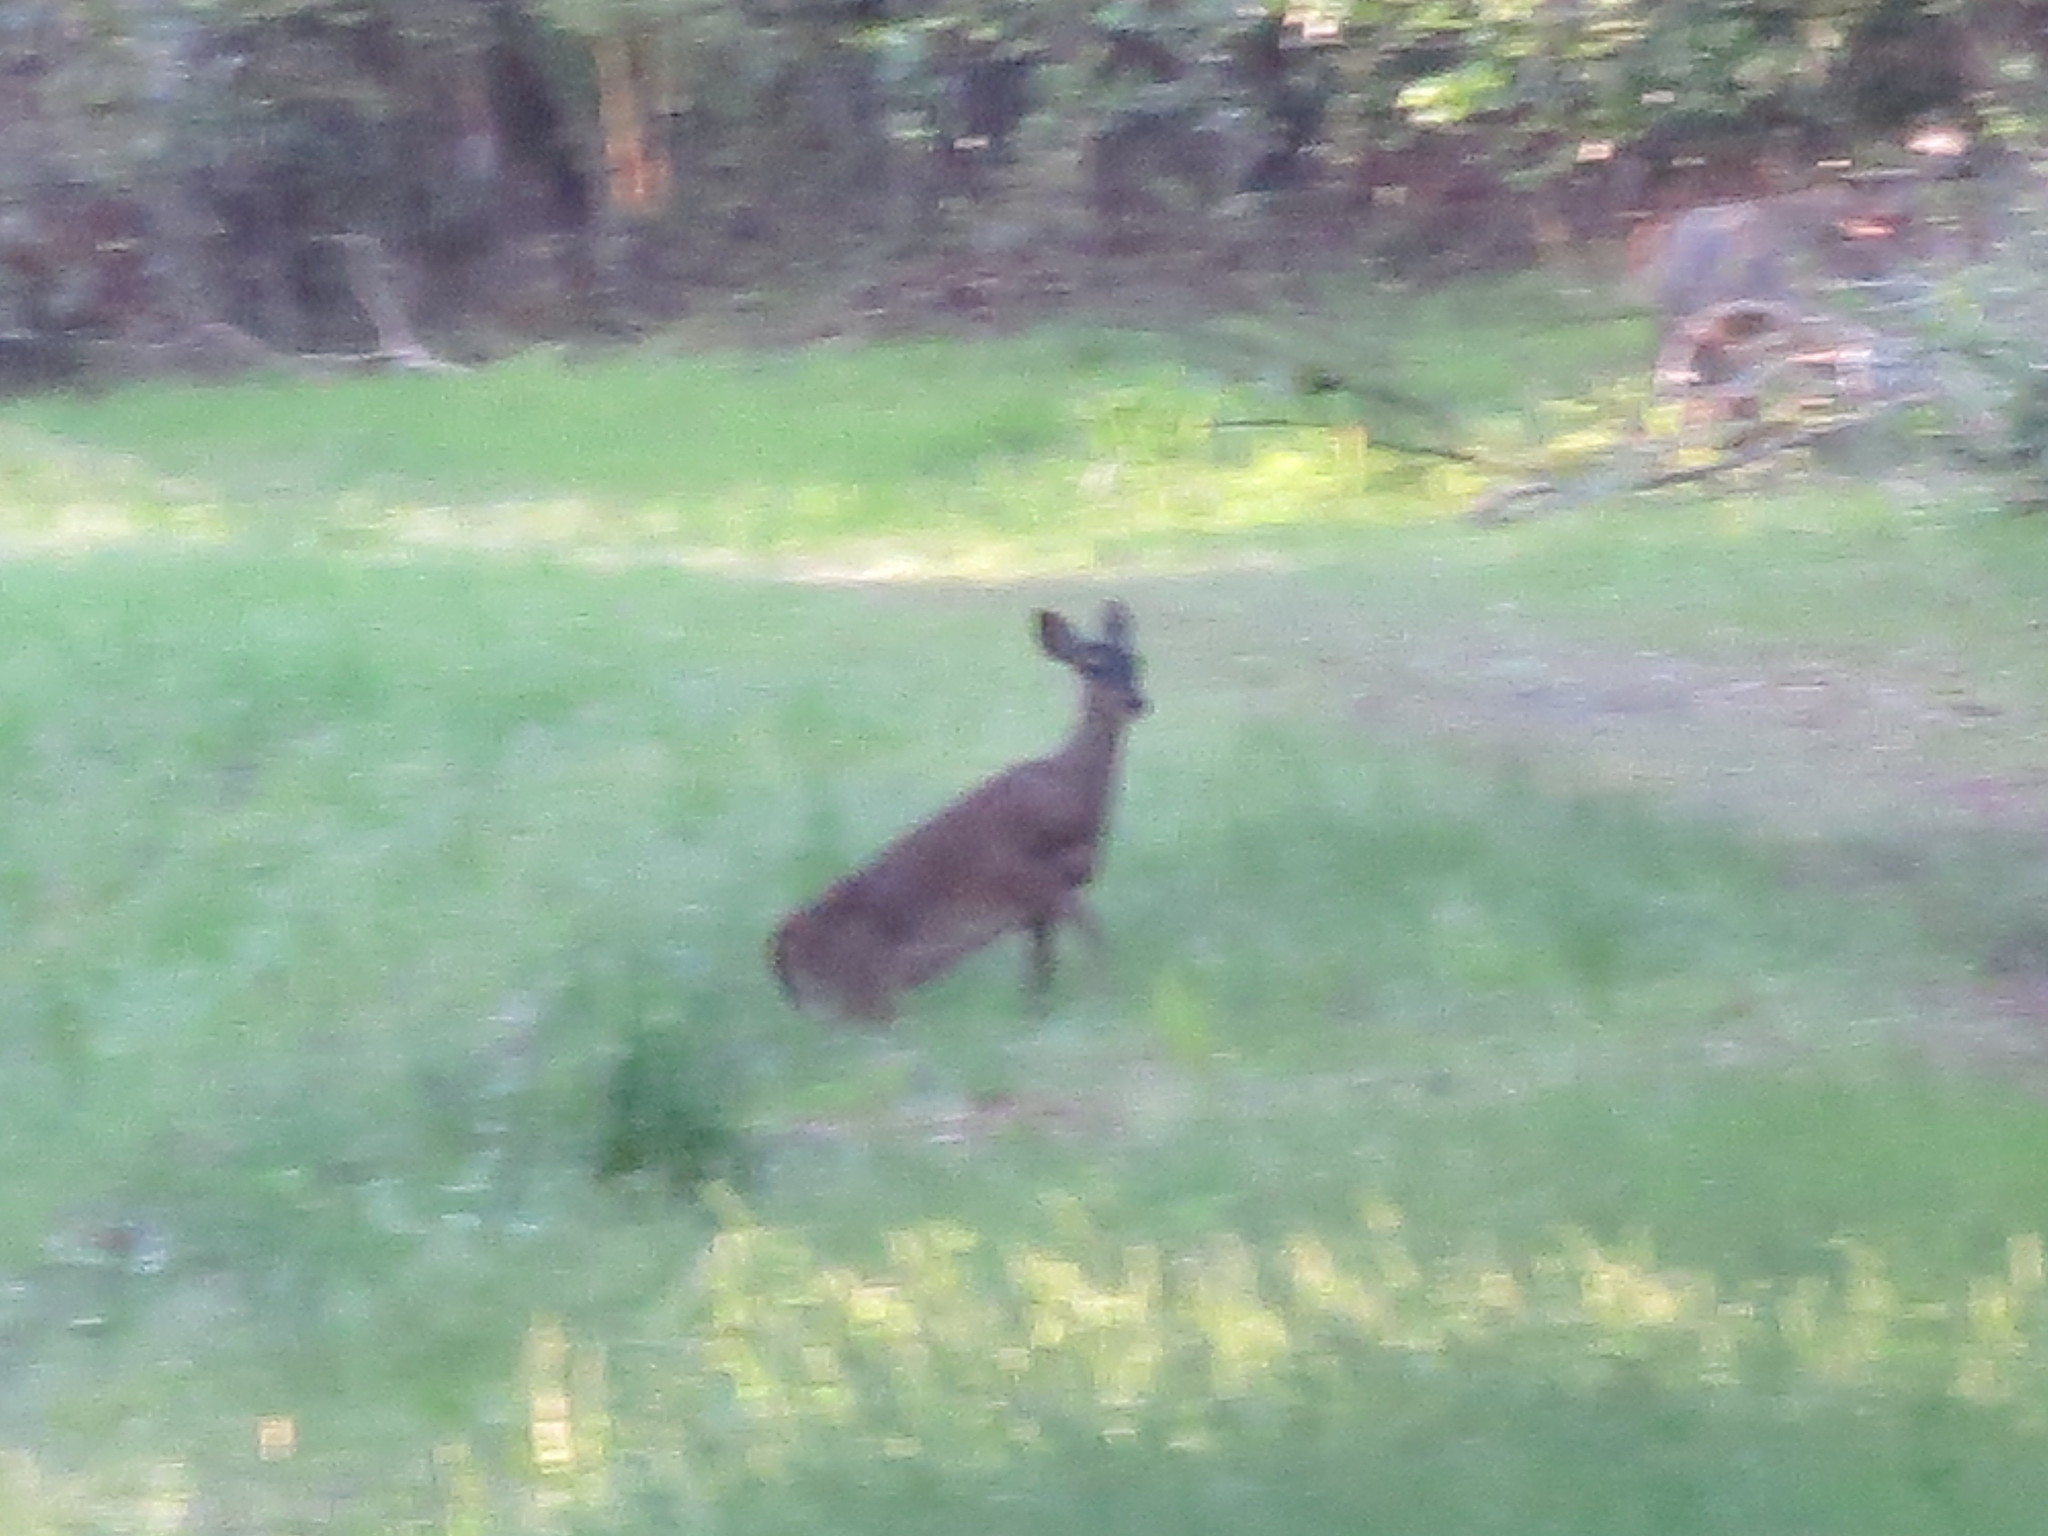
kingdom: Animalia
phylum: Chordata
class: Mammalia
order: Artiodactyla
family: Cervidae
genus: Odocoileus
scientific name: Odocoileus virginianus
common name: White-tailed deer
